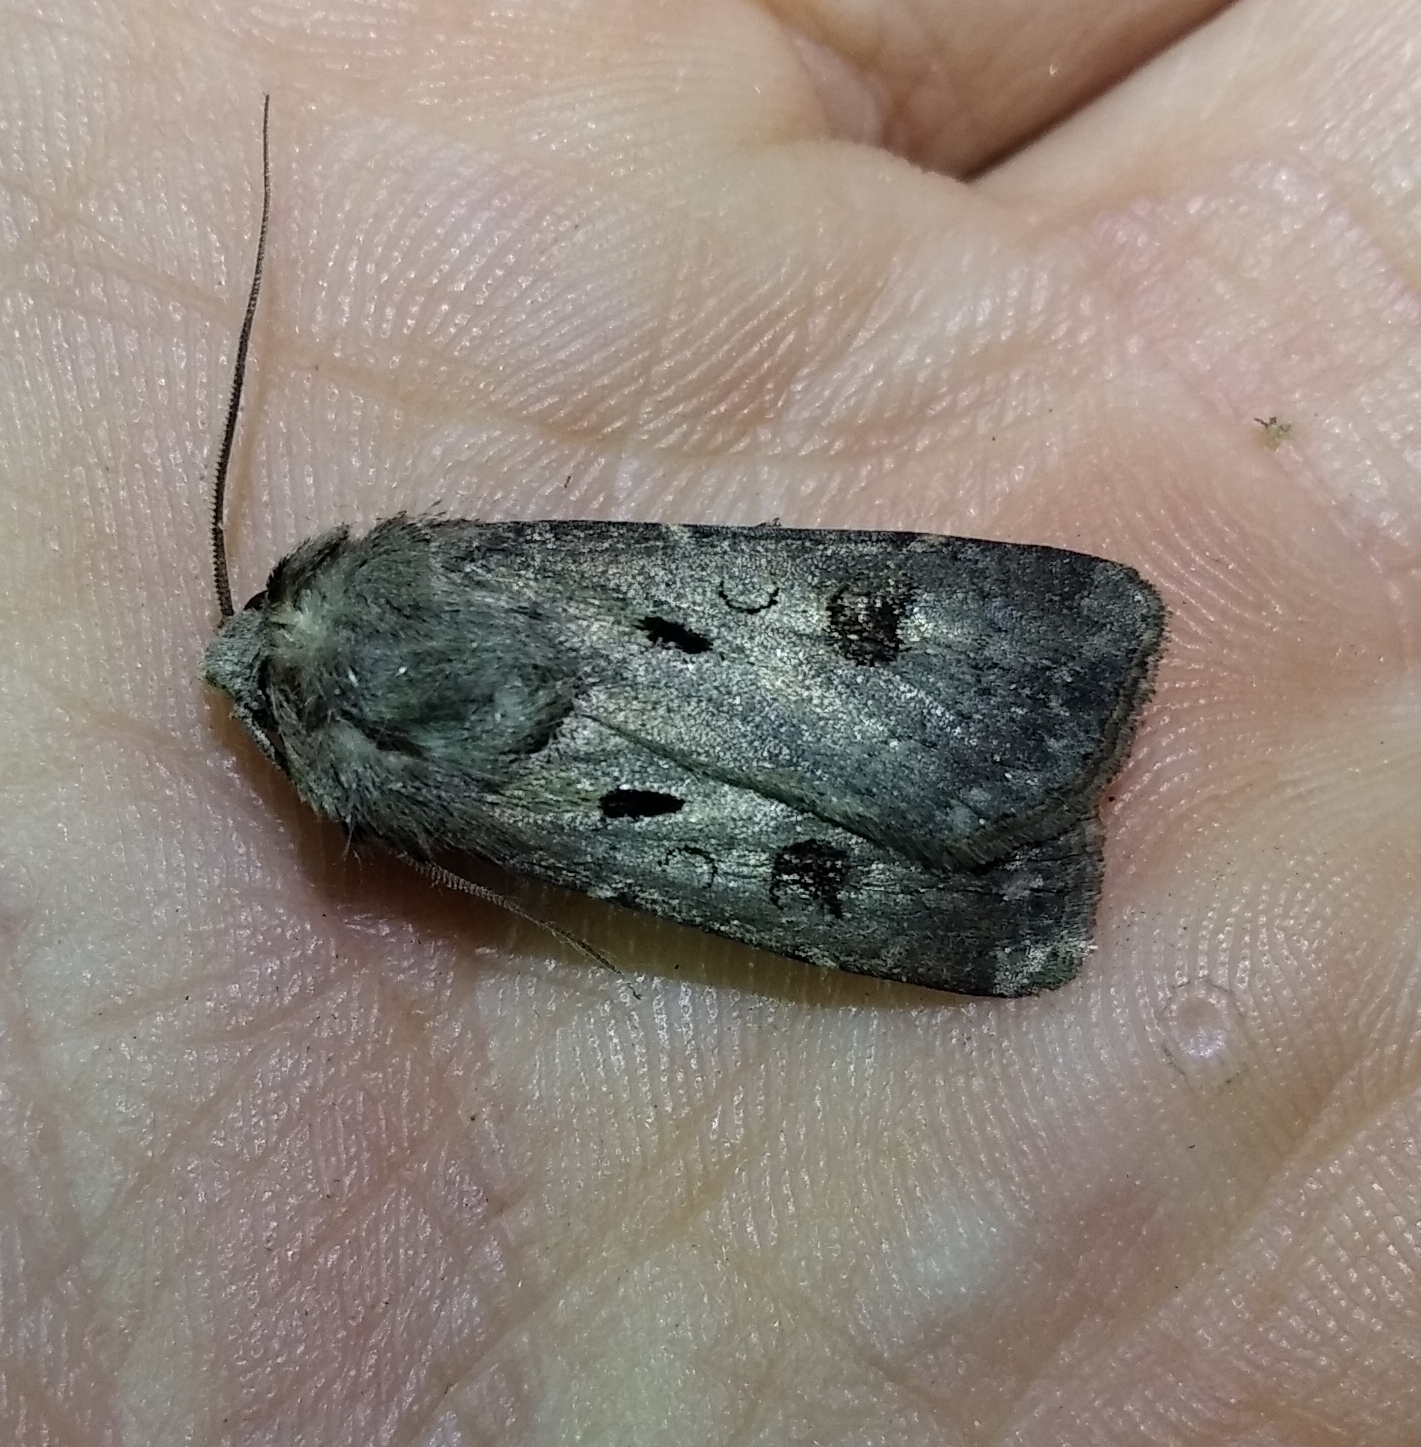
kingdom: Animalia
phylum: Arthropoda
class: Insecta
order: Lepidoptera
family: Noctuidae
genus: Agrotis
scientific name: Agrotis exclamationis
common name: Heart and dart
